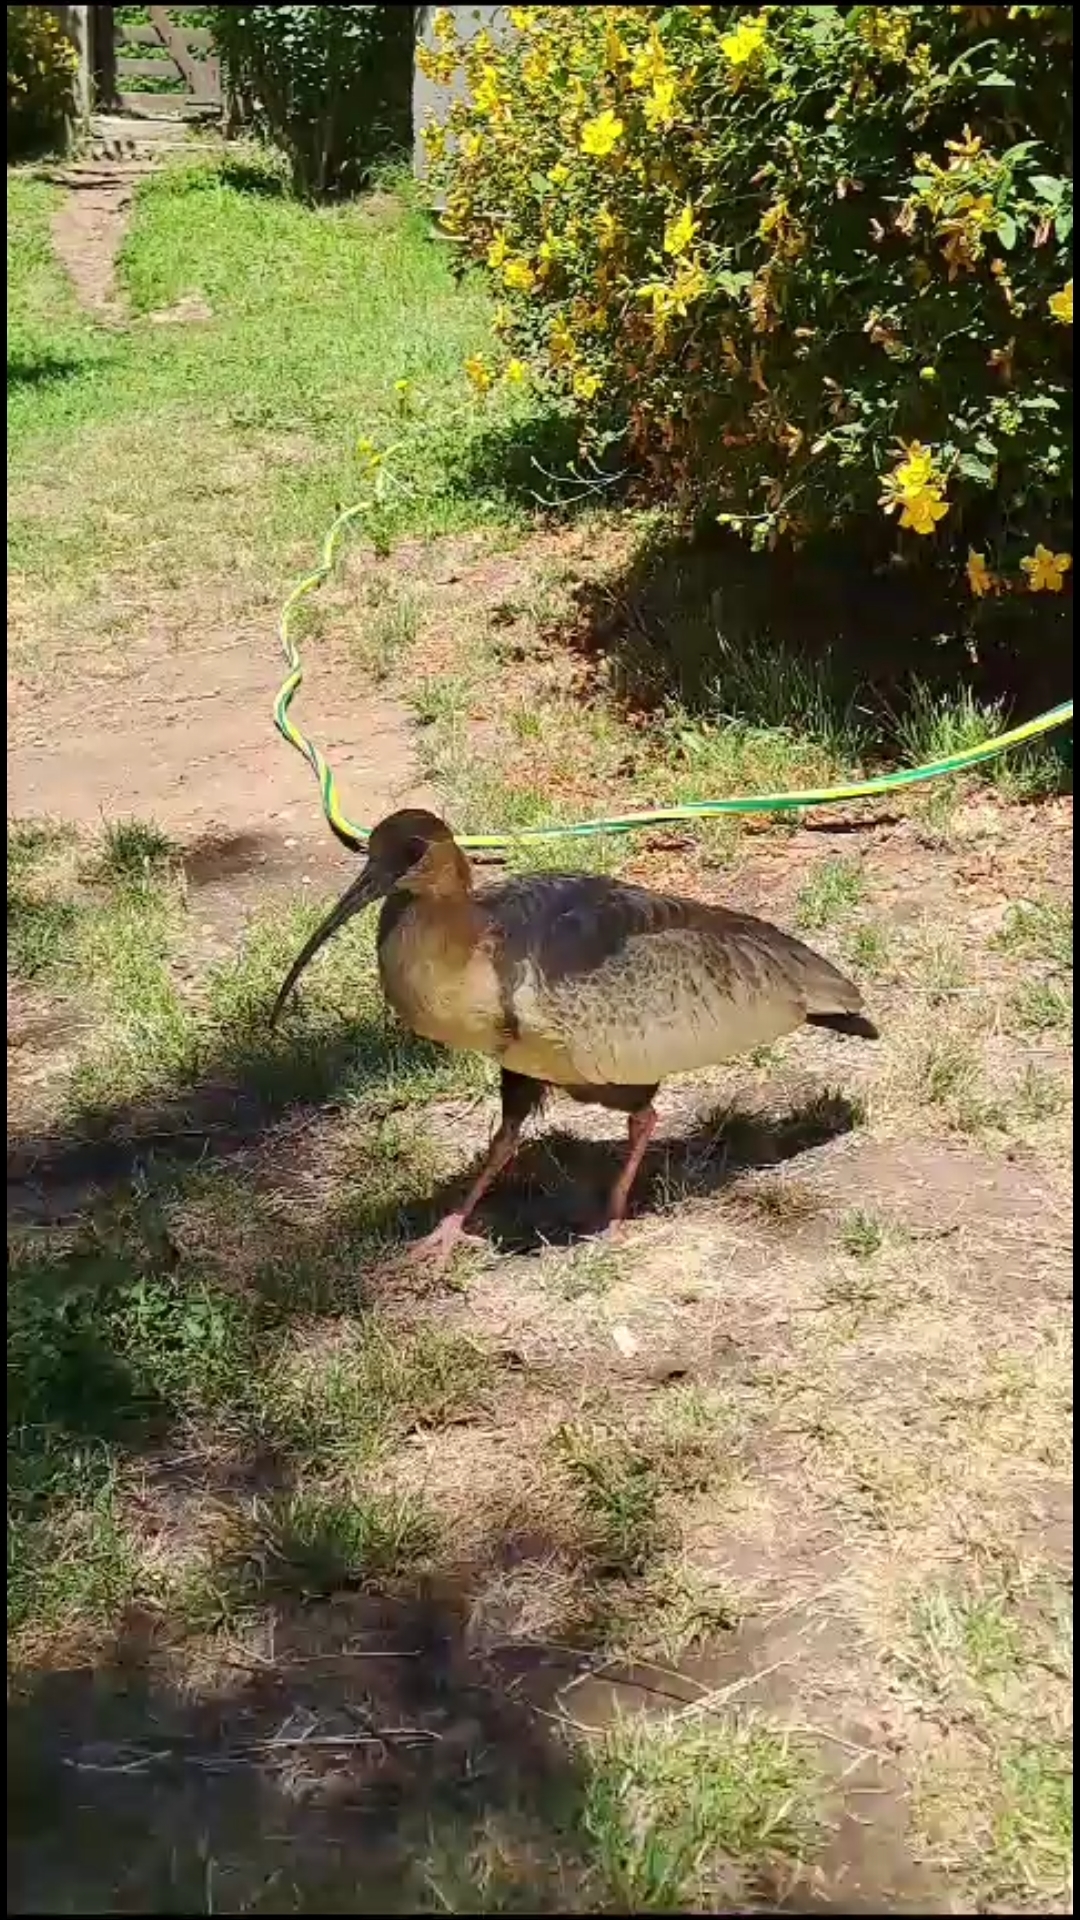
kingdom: Animalia
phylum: Chordata
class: Aves
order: Pelecaniformes
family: Threskiornithidae
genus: Theristicus
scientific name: Theristicus melanopis
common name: Black-faced ibis
